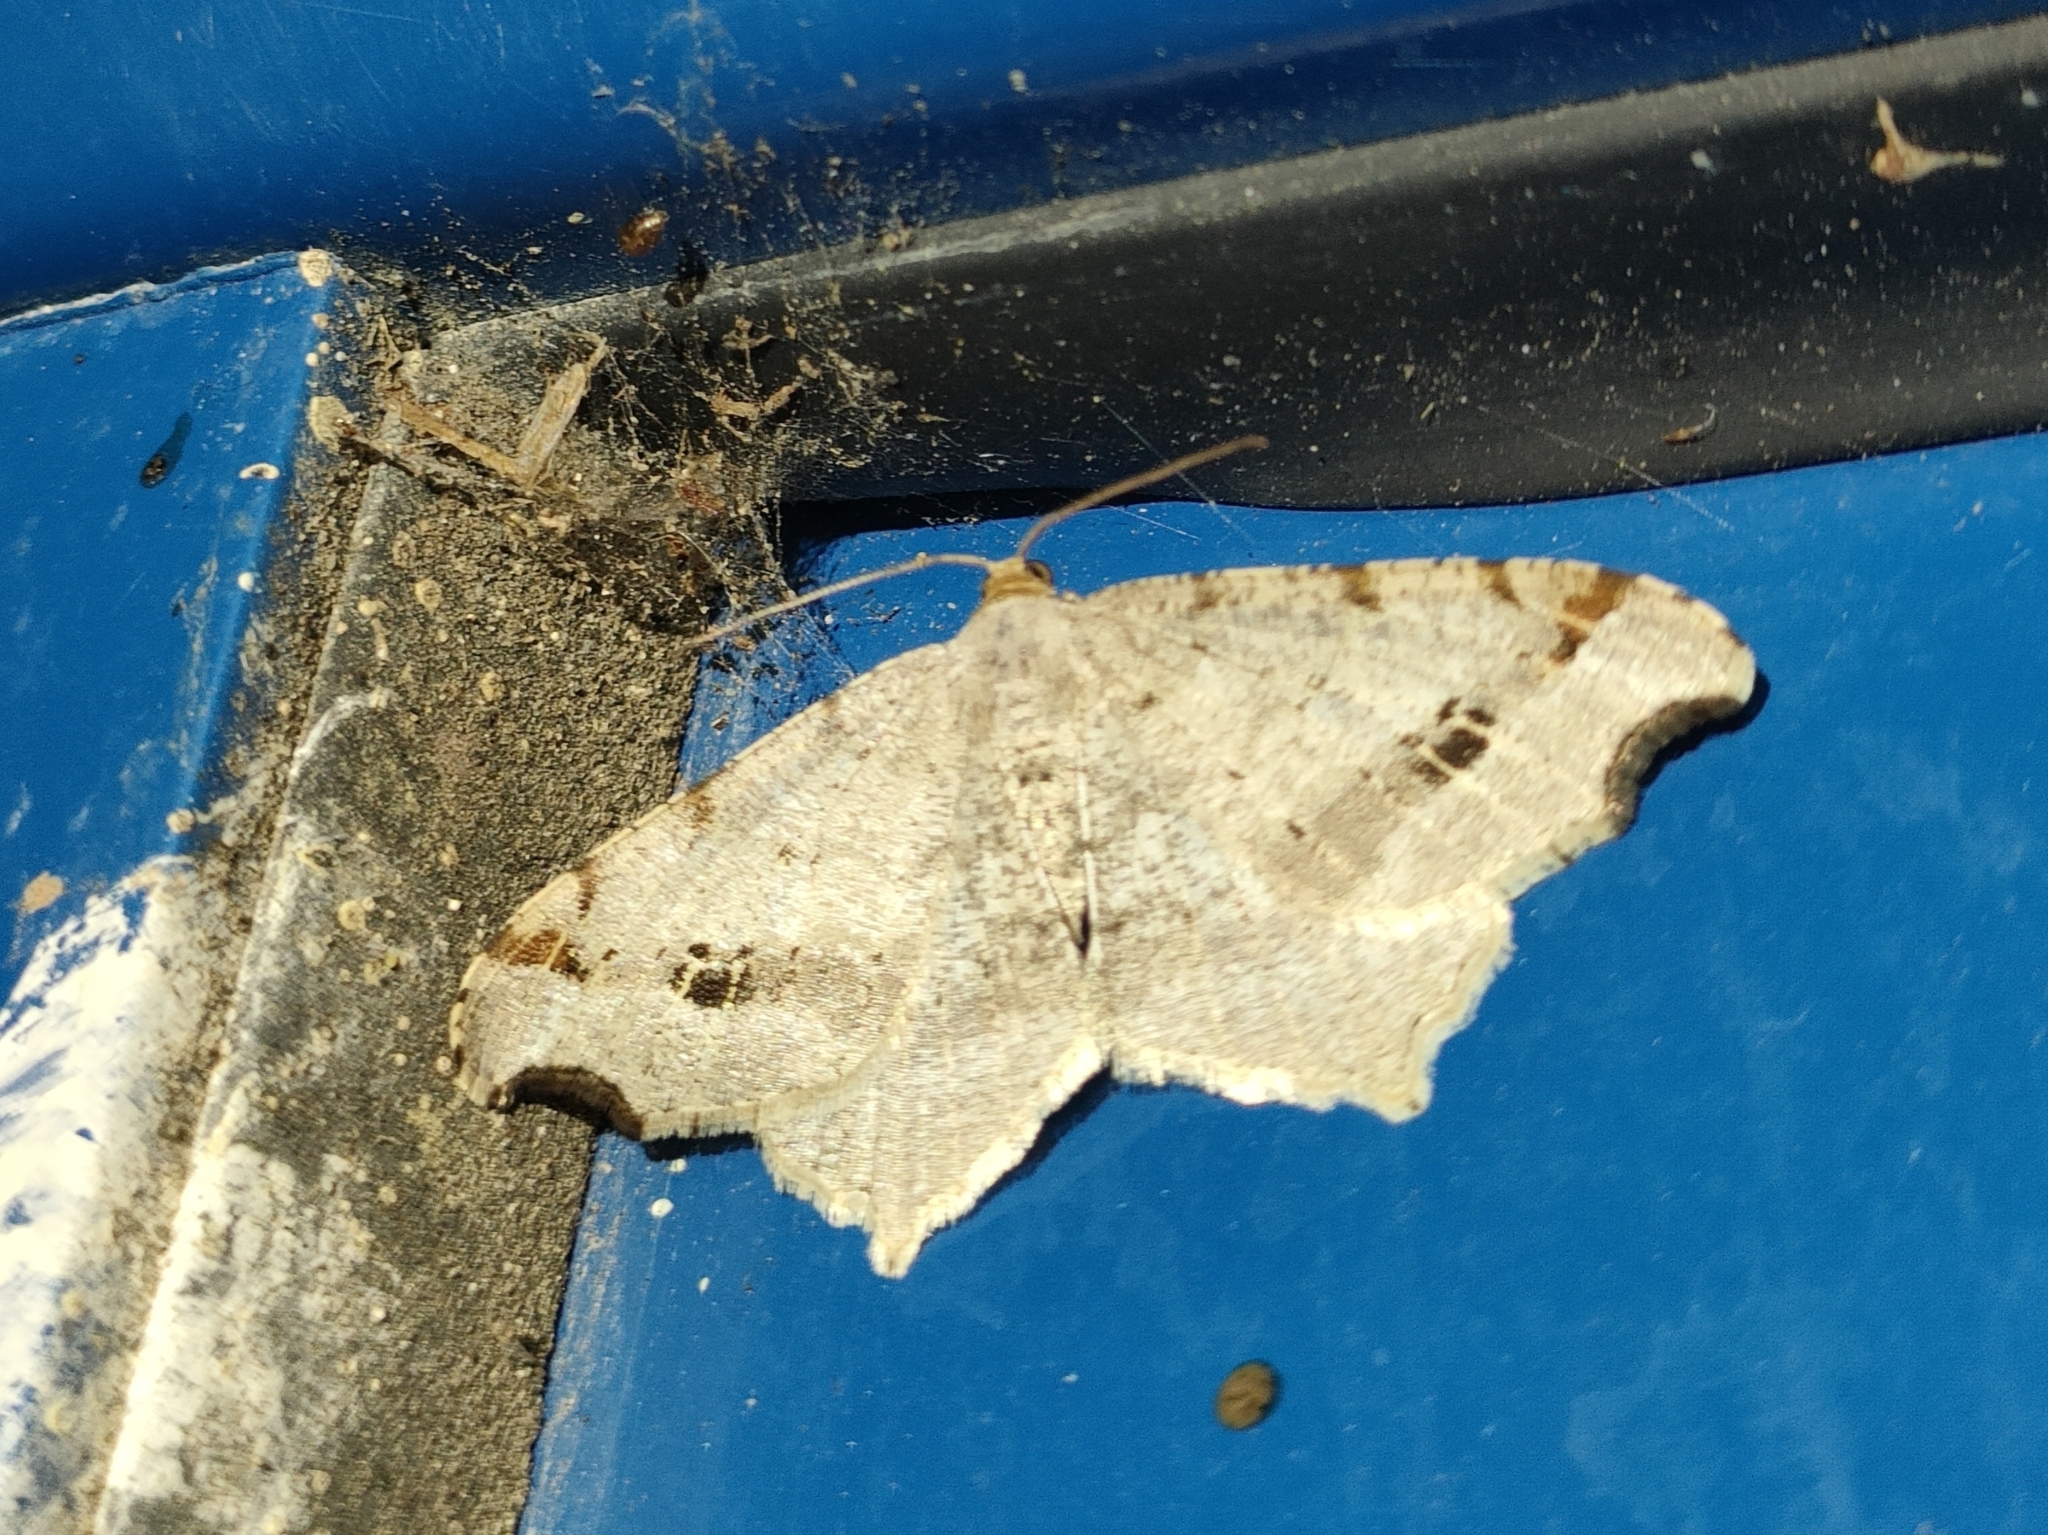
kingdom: Animalia
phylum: Arthropoda
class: Insecta
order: Lepidoptera
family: Geometridae
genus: Macaria
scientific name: Macaria alternata
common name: Sharp-angled peacock
